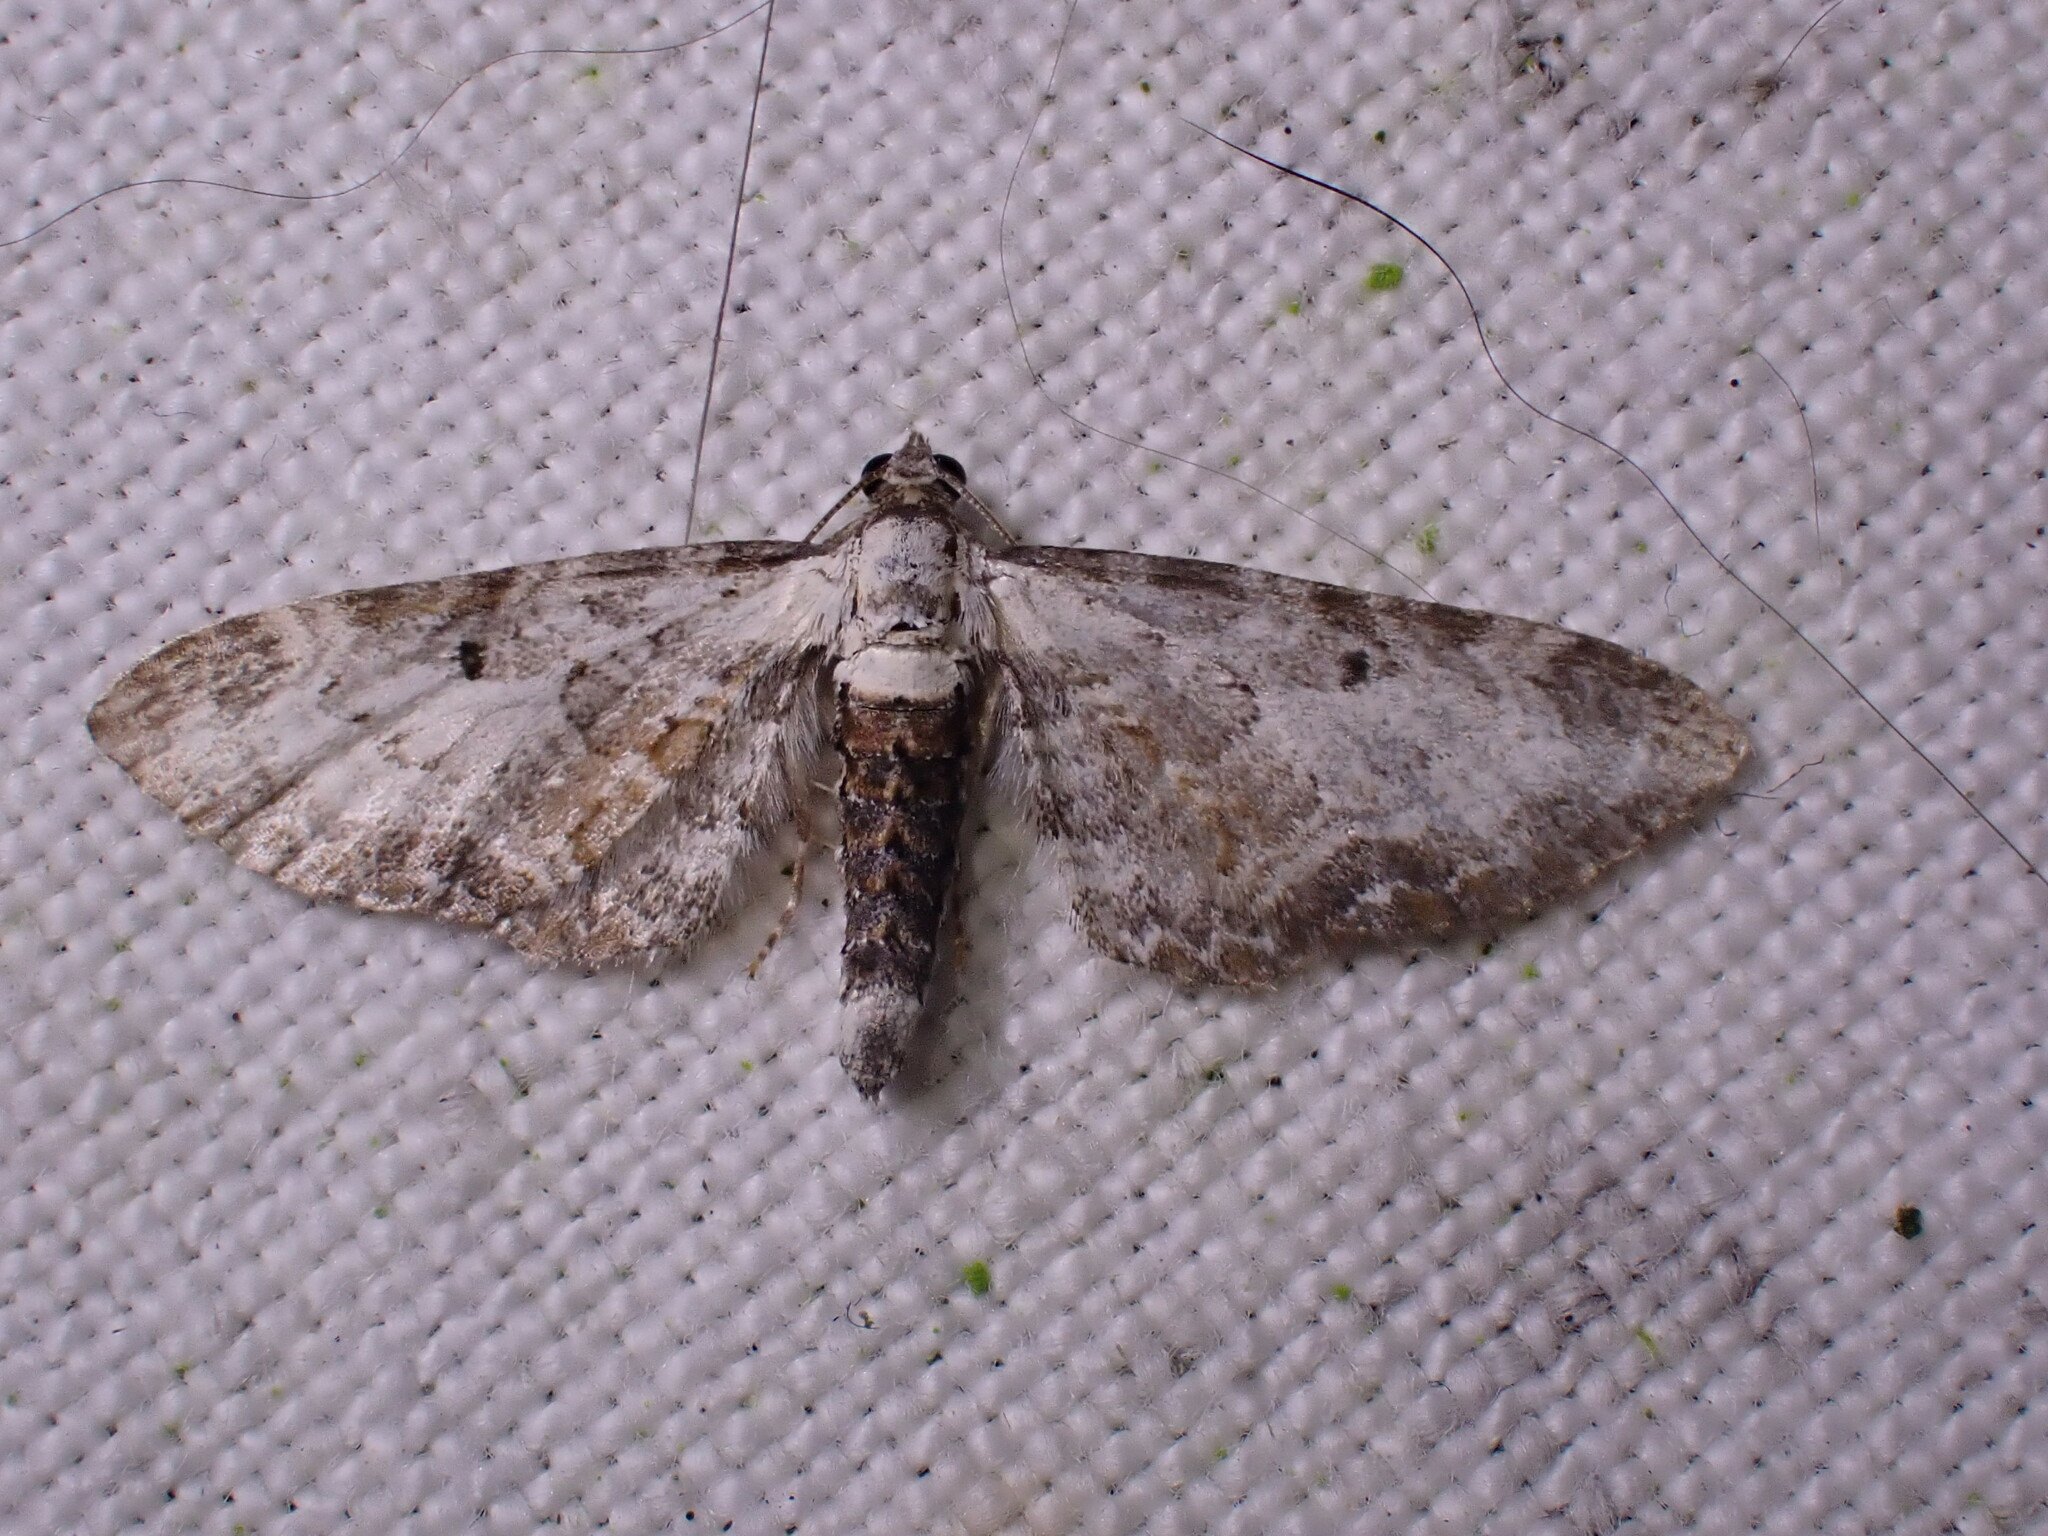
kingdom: Animalia
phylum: Arthropoda
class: Insecta
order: Lepidoptera
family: Geometridae
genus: Eupithecia
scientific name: Eupithecia succenturiata
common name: Bordered pug
